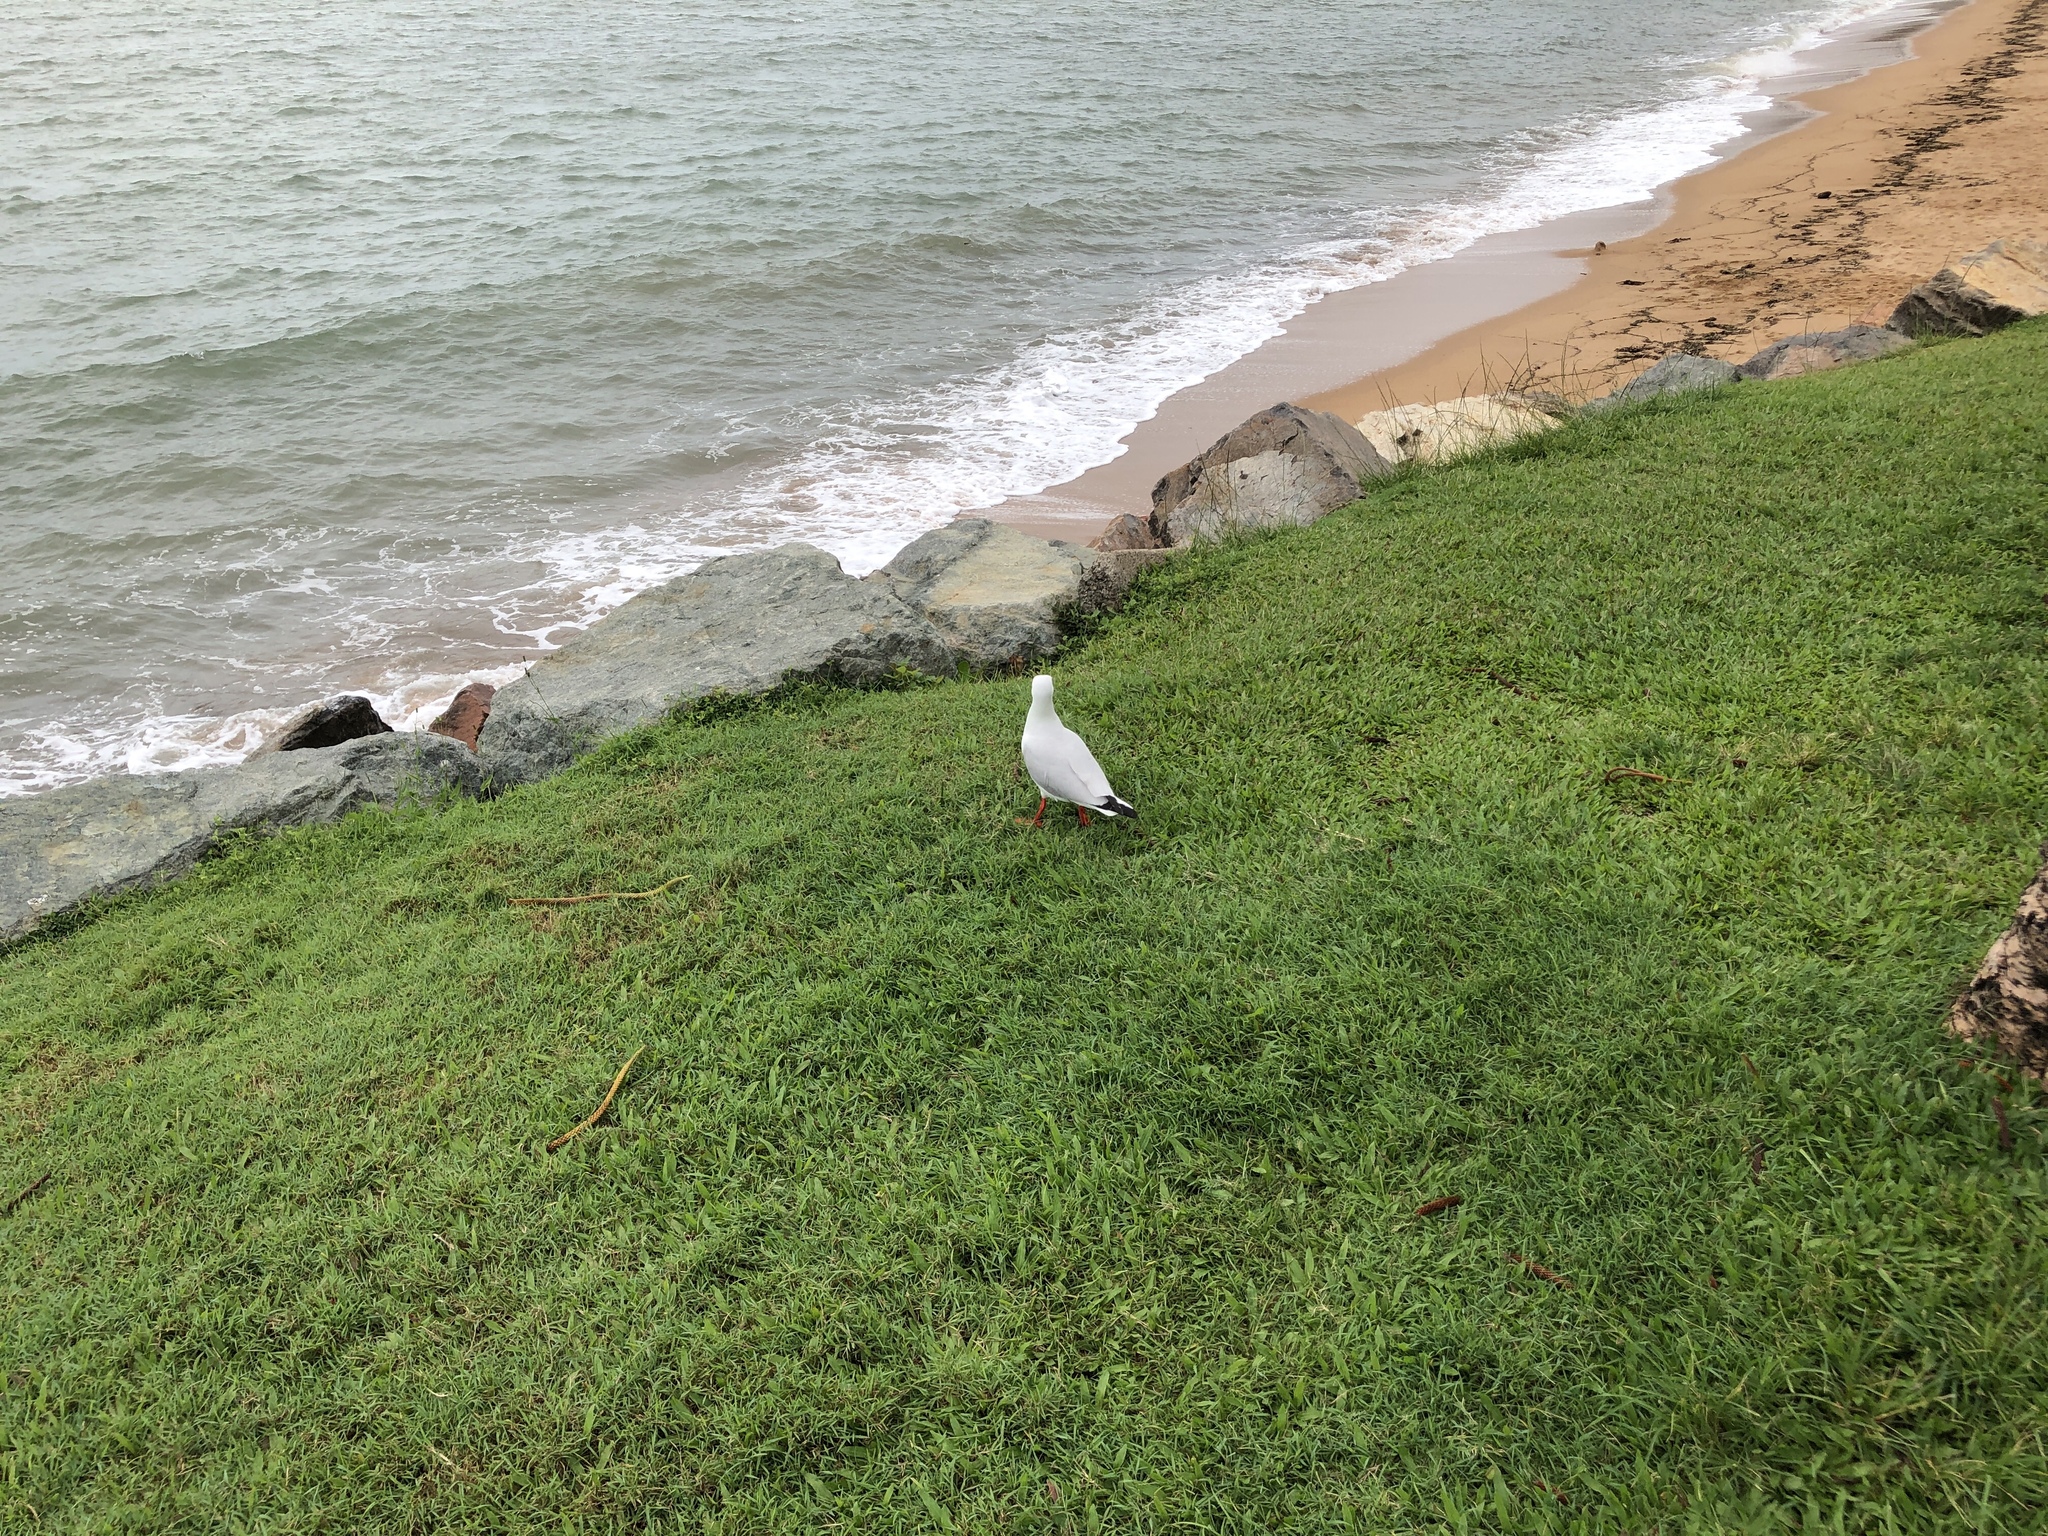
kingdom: Animalia
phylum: Chordata
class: Aves
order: Charadriiformes
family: Laridae
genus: Chroicocephalus
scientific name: Chroicocephalus novaehollandiae
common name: Silver gull
